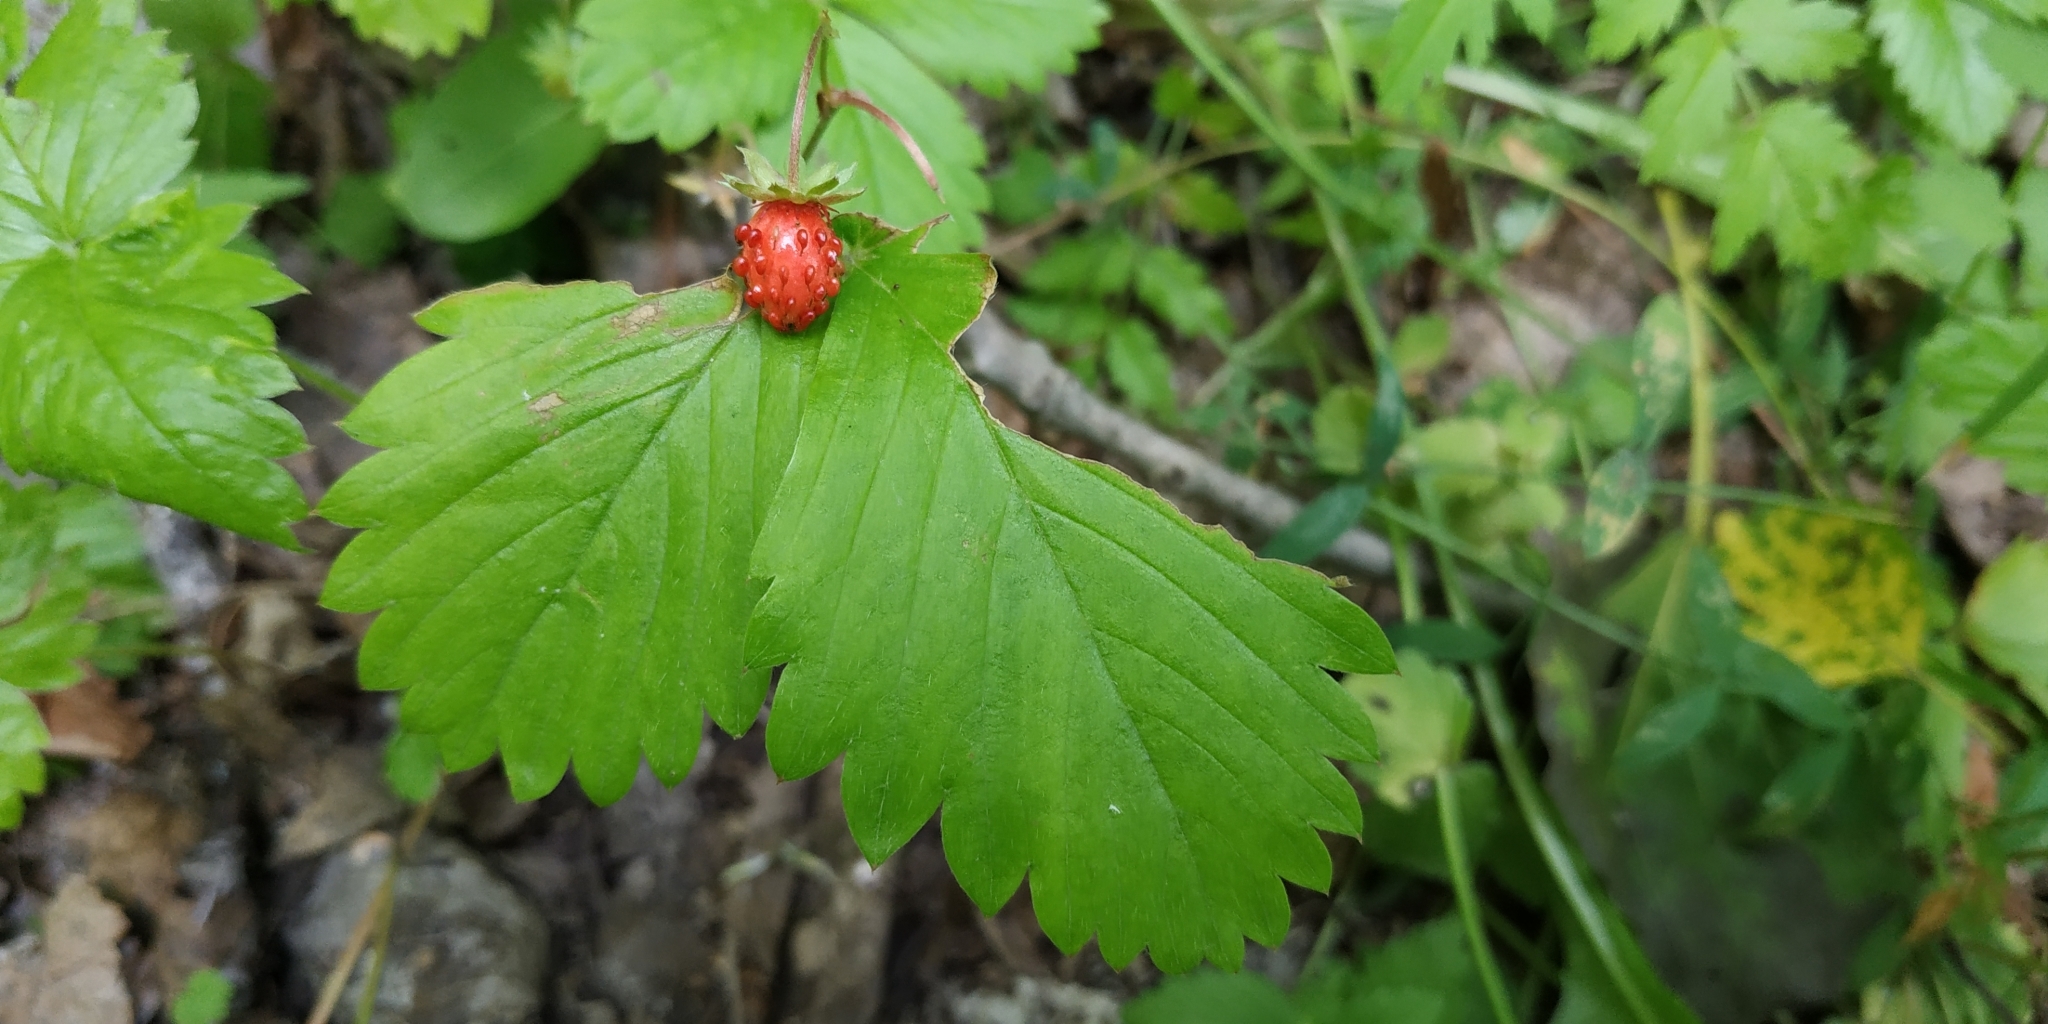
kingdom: Plantae
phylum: Tracheophyta
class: Magnoliopsida
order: Rosales
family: Rosaceae
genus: Fragaria
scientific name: Fragaria vesca
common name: Wild strawberry
